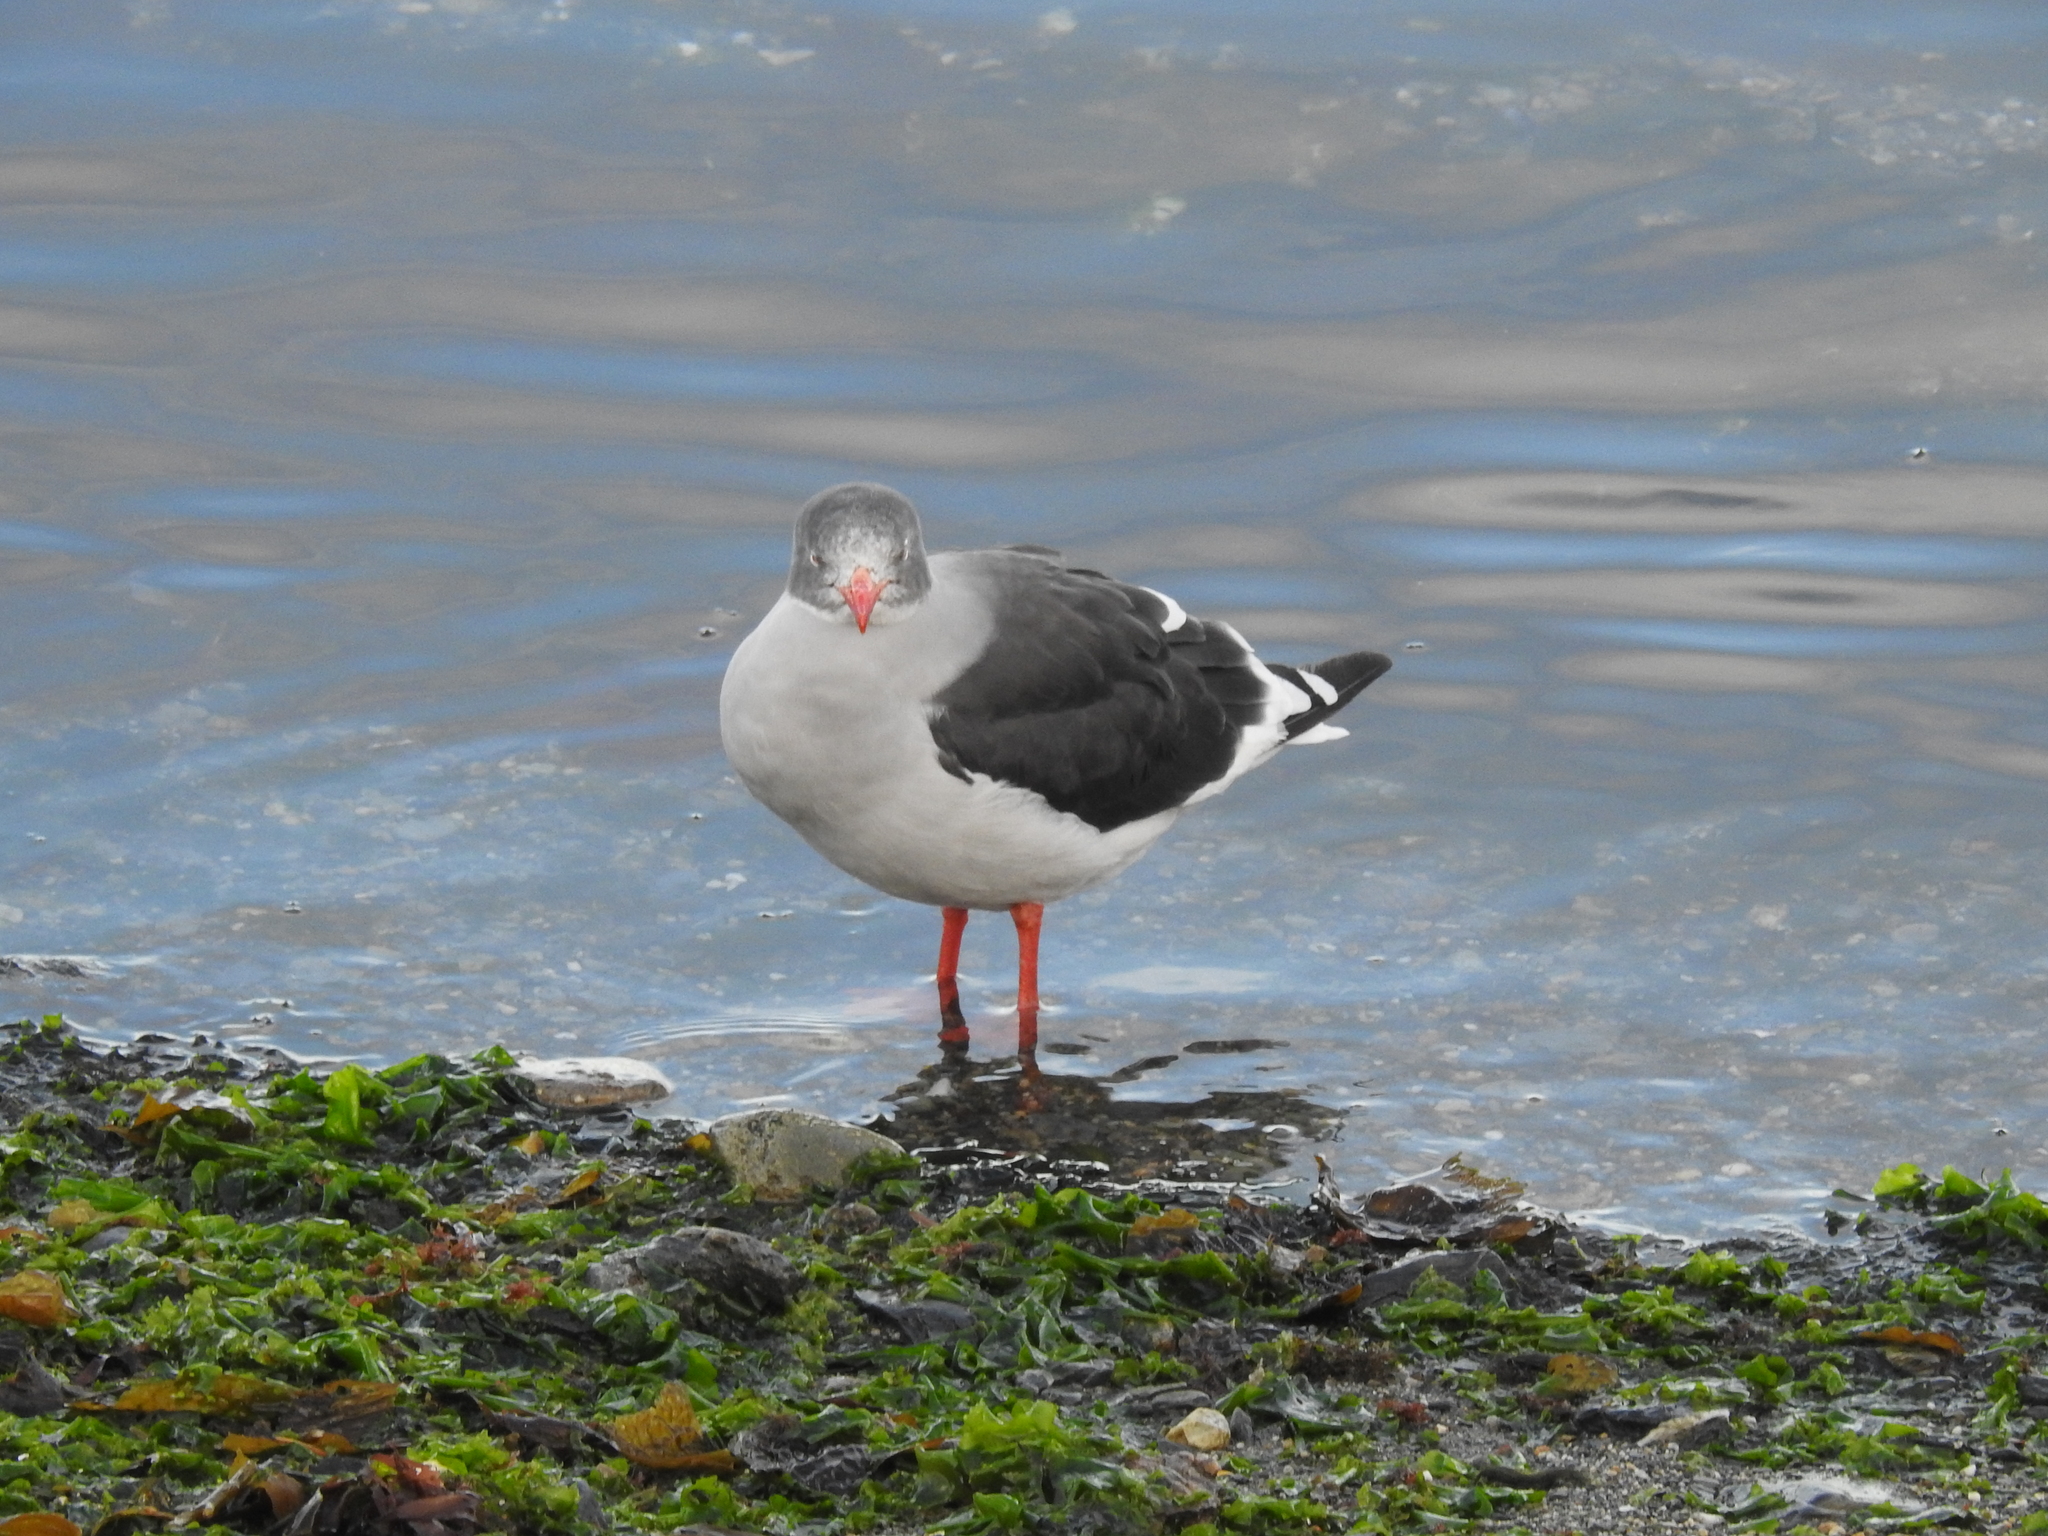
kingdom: Animalia
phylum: Chordata
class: Aves
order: Charadriiformes
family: Laridae
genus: Leucophaeus
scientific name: Leucophaeus scoresbii
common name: Dolphin gull
